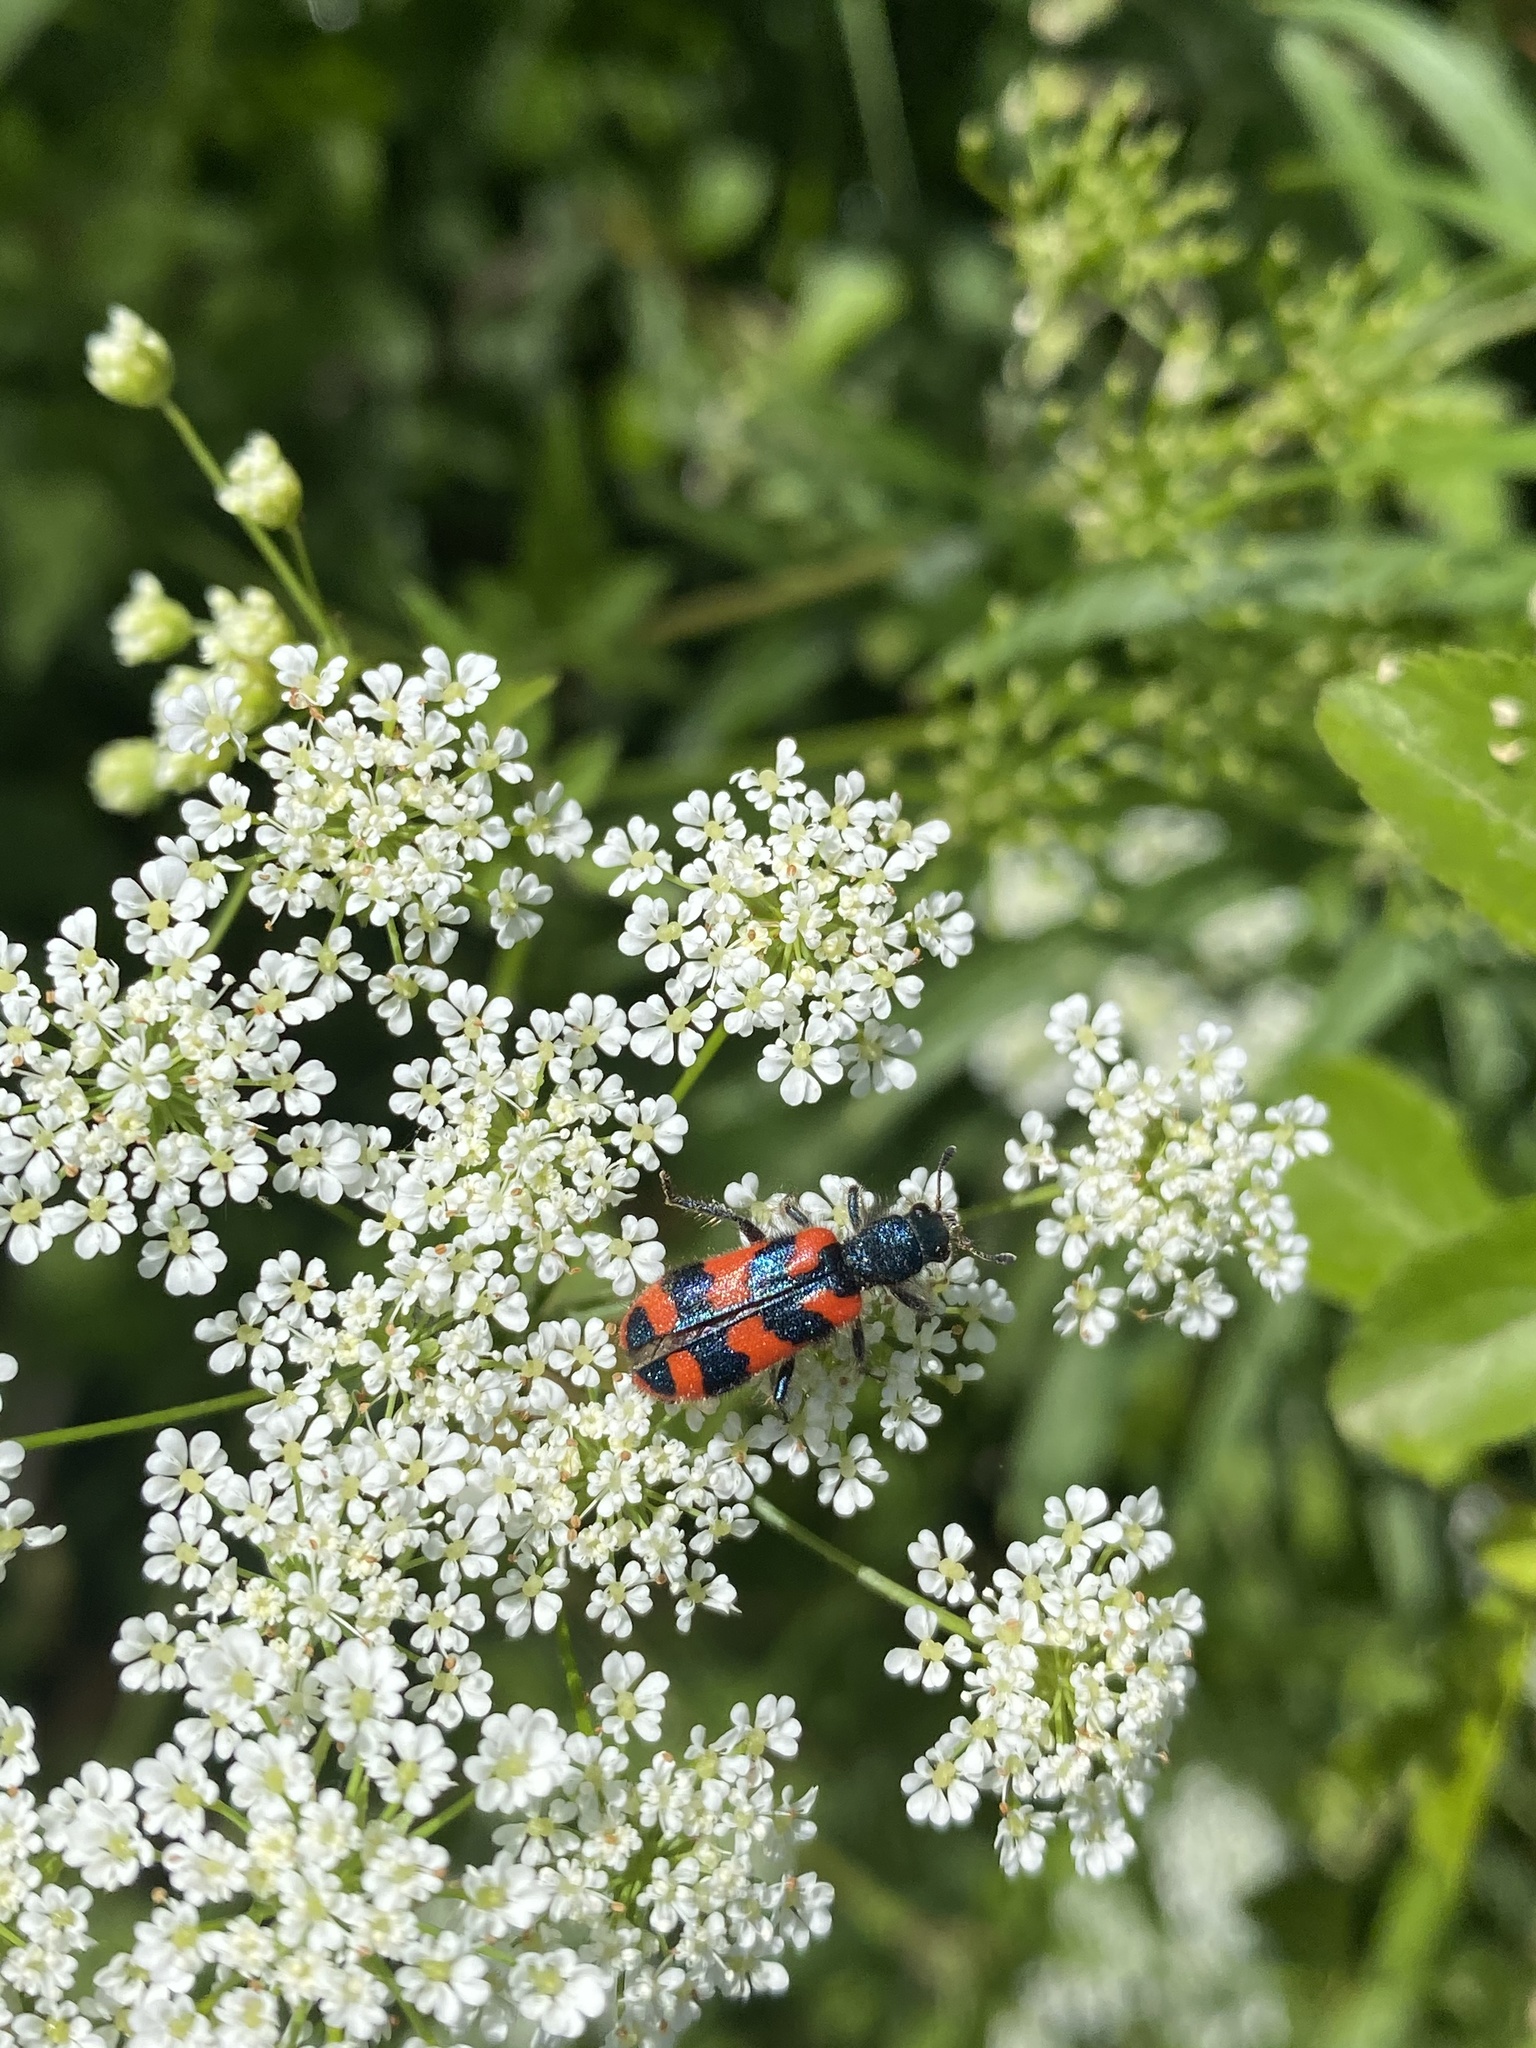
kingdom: Animalia
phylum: Arthropoda
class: Insecta
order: Coleoptera
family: Cleridae
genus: Trichodes
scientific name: Trichodes alvearius
